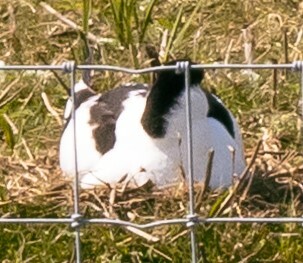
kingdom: Animalia
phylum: Chordata
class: Aves
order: Charadriiformes
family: Recurvirostridae
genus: Recurvirostra
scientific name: Recurvirostra avosetta
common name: Pied avocet
